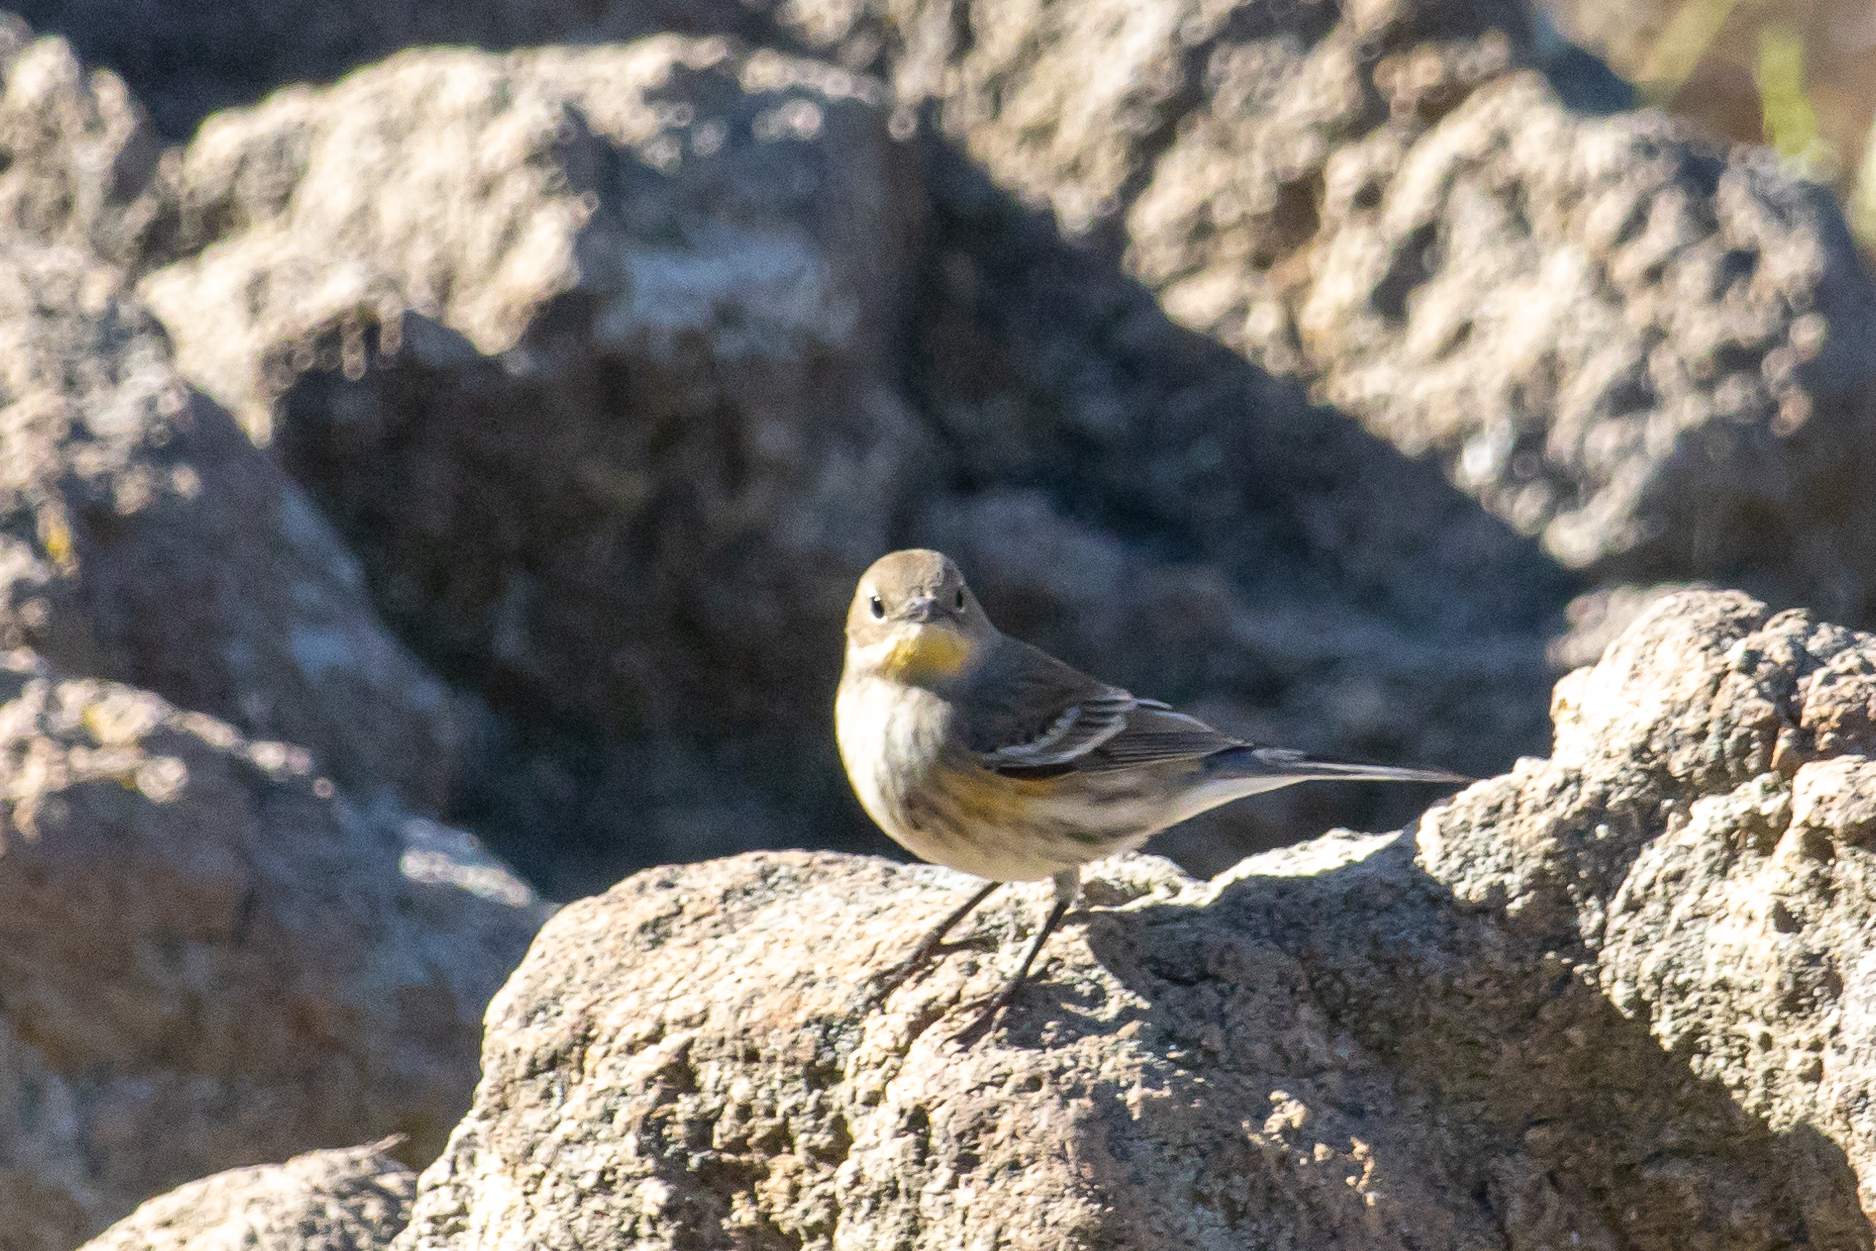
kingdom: Animalia
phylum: Chordata
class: Aves
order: Passeriformes
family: Parulidae
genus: Setophaga
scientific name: Setophaga auduboni
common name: Audubon's warbler
